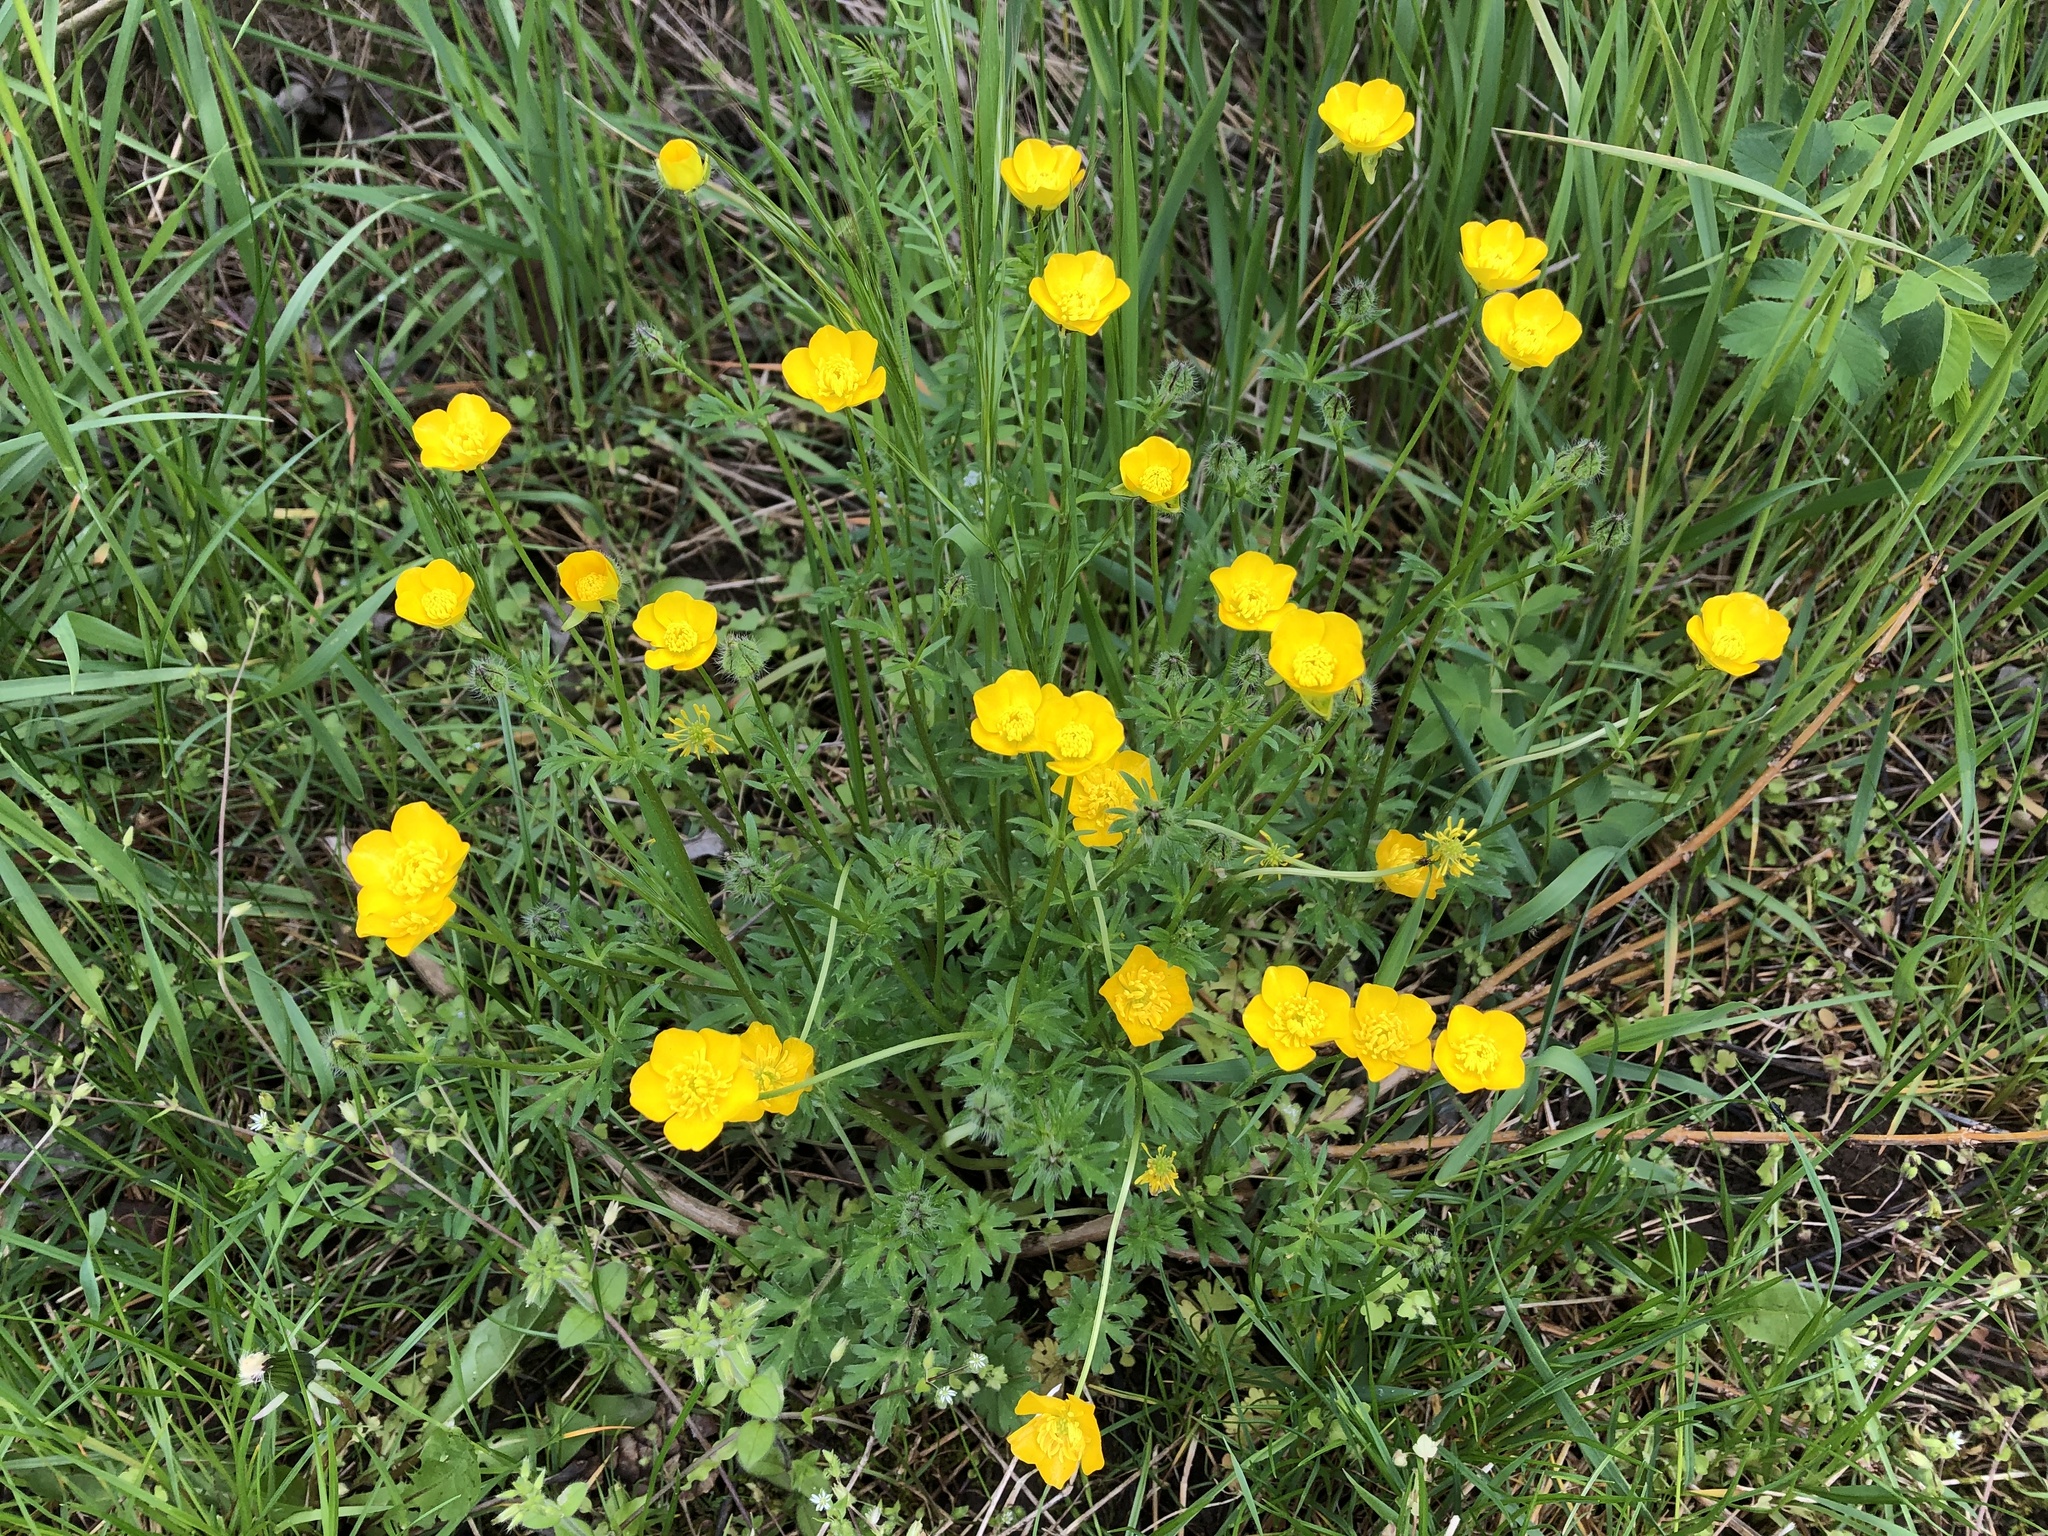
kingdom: Plantae
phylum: Tracheophyta
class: Magnoliopsida
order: Ranunculales
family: Ranunculaceae
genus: Ranunculus
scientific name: Ranunculus bulbosus
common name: Bulbous buttercup
